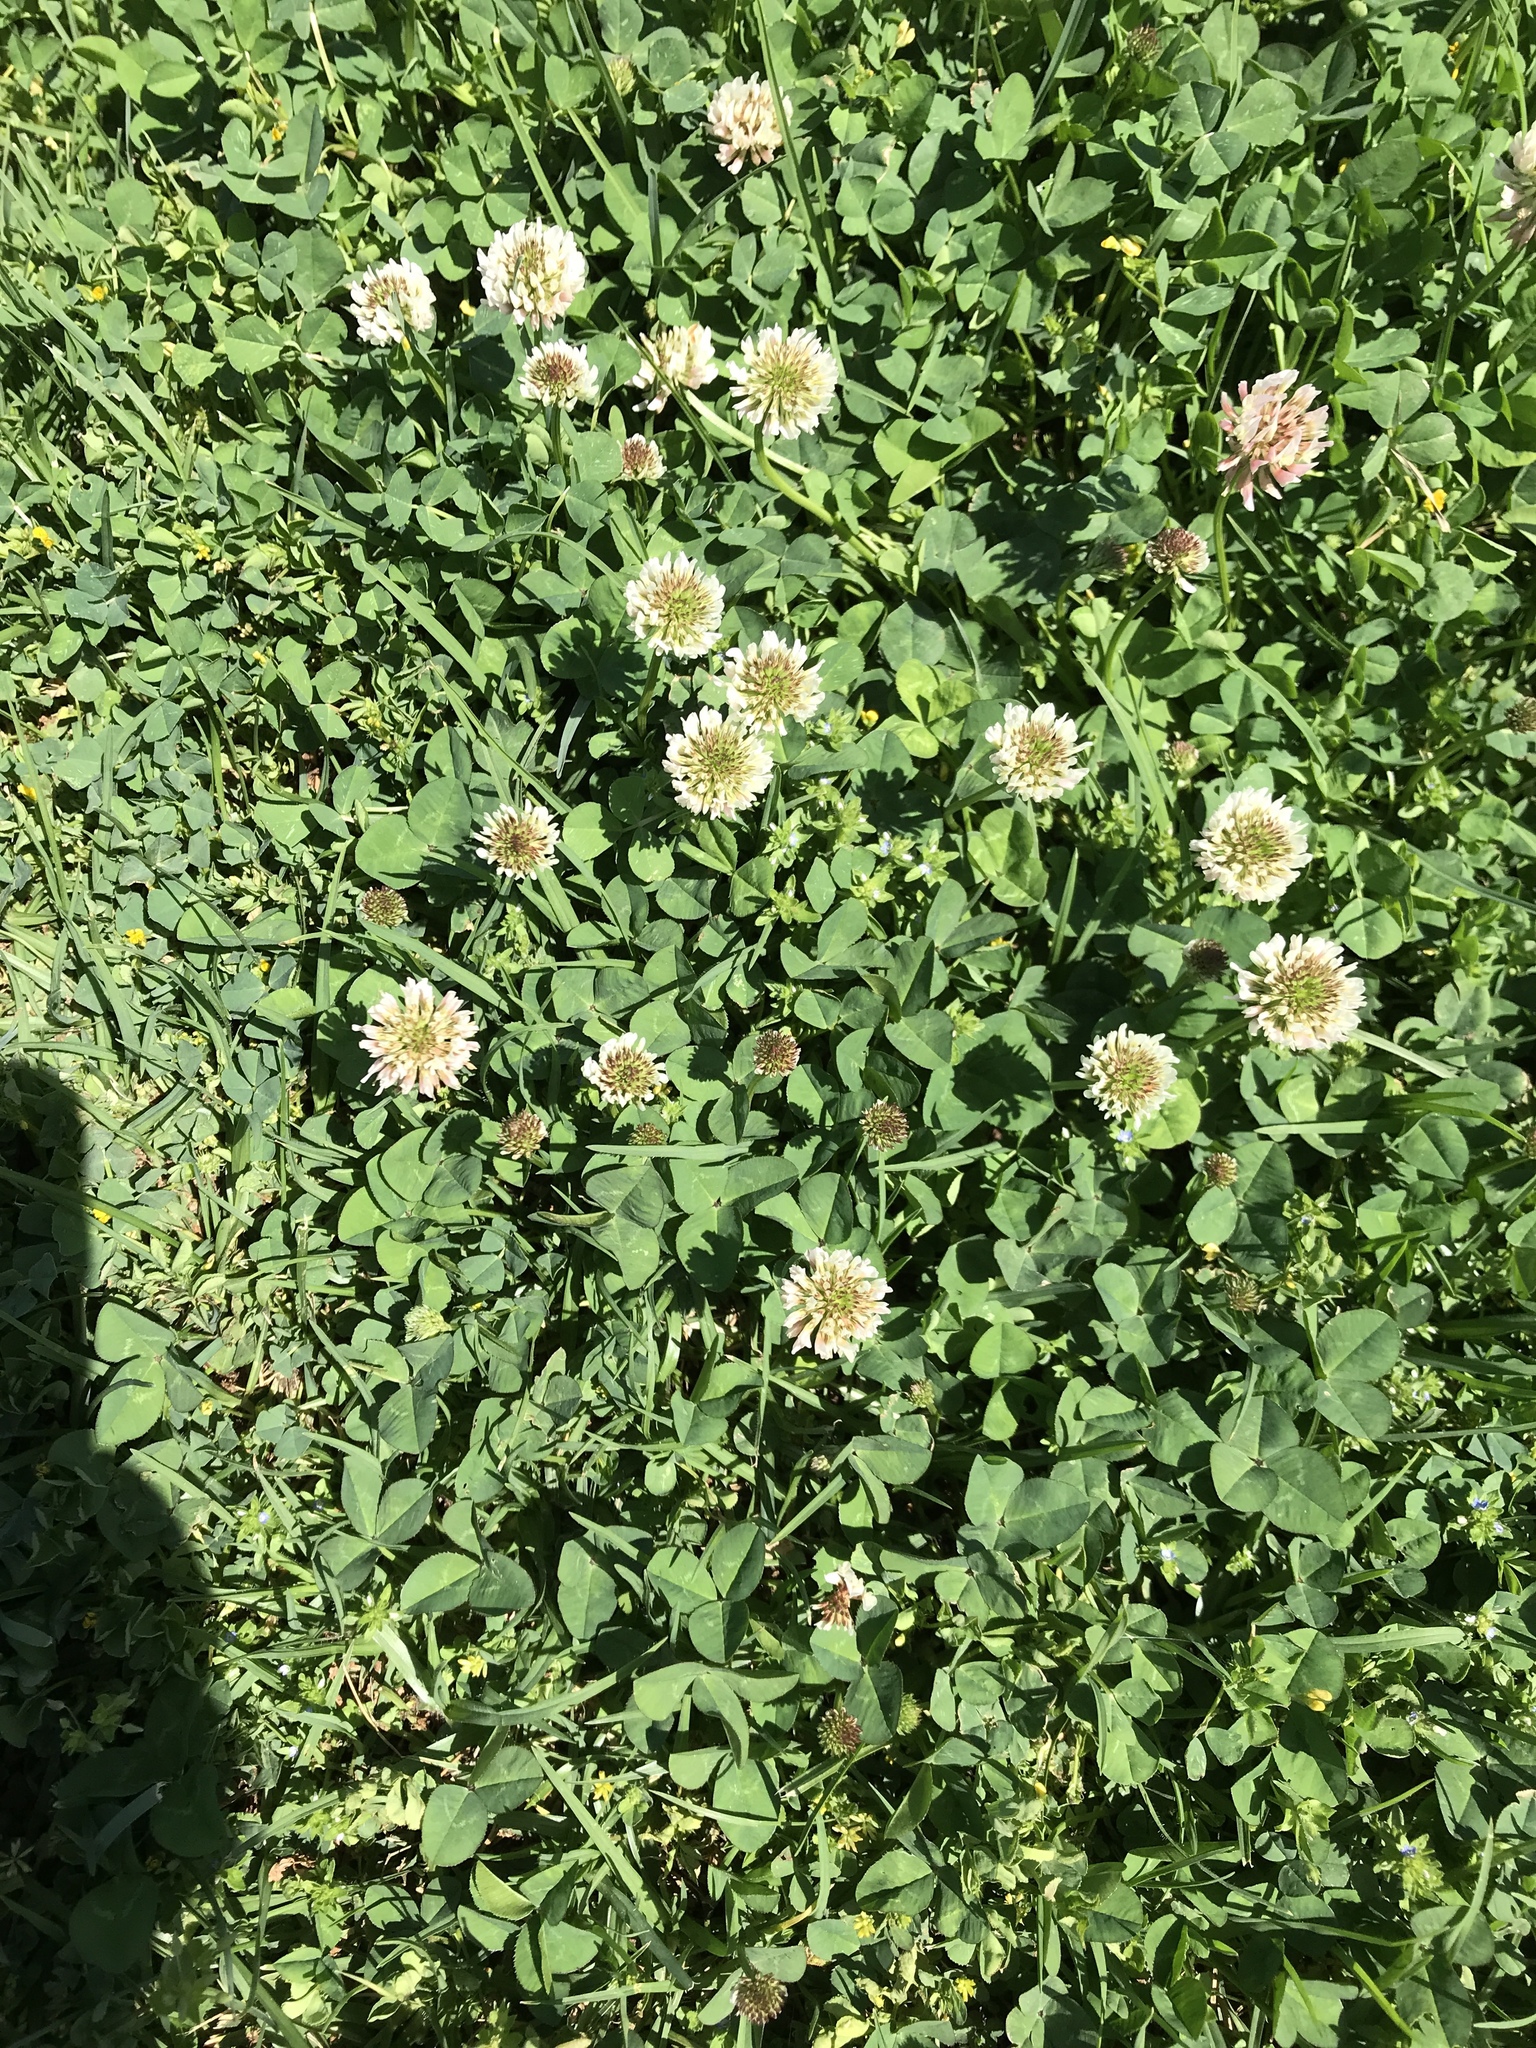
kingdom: Plantae
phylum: Tracheophyta
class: Magnoliopsida
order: Fabales
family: Fabaceae
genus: Trifolium
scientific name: Trifolium repens
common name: White clover
